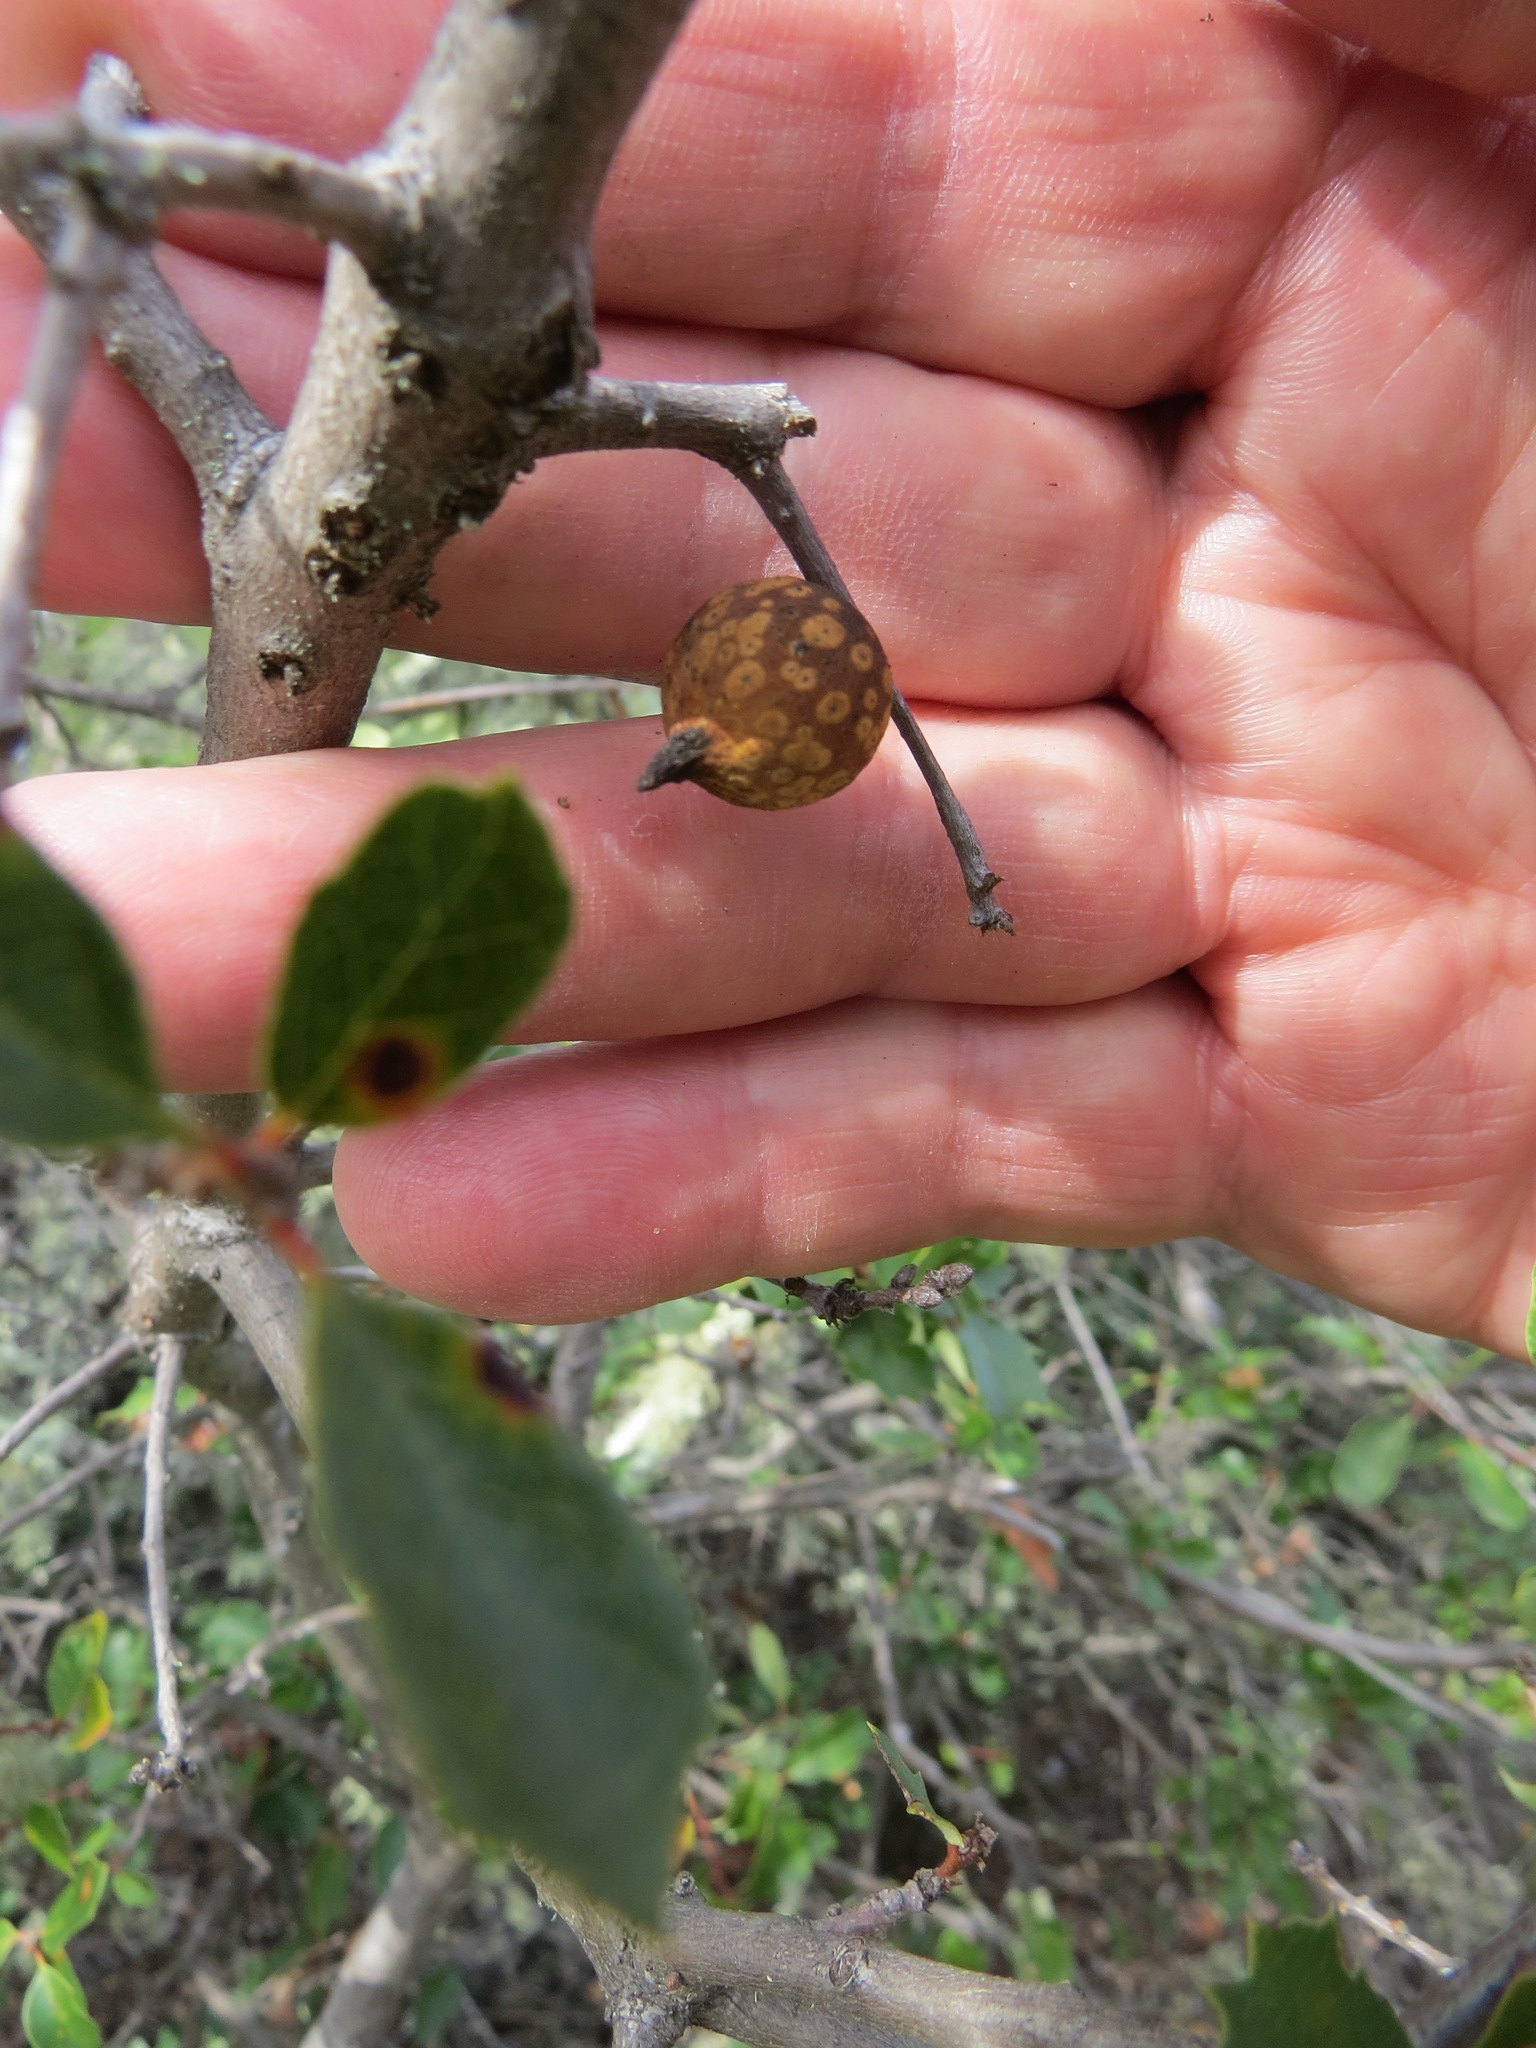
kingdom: Animalia
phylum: Arthropoda
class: Insecta
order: Hymenoptera
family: Cynipidae
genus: Burnettweldia
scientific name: Burnettweldia
